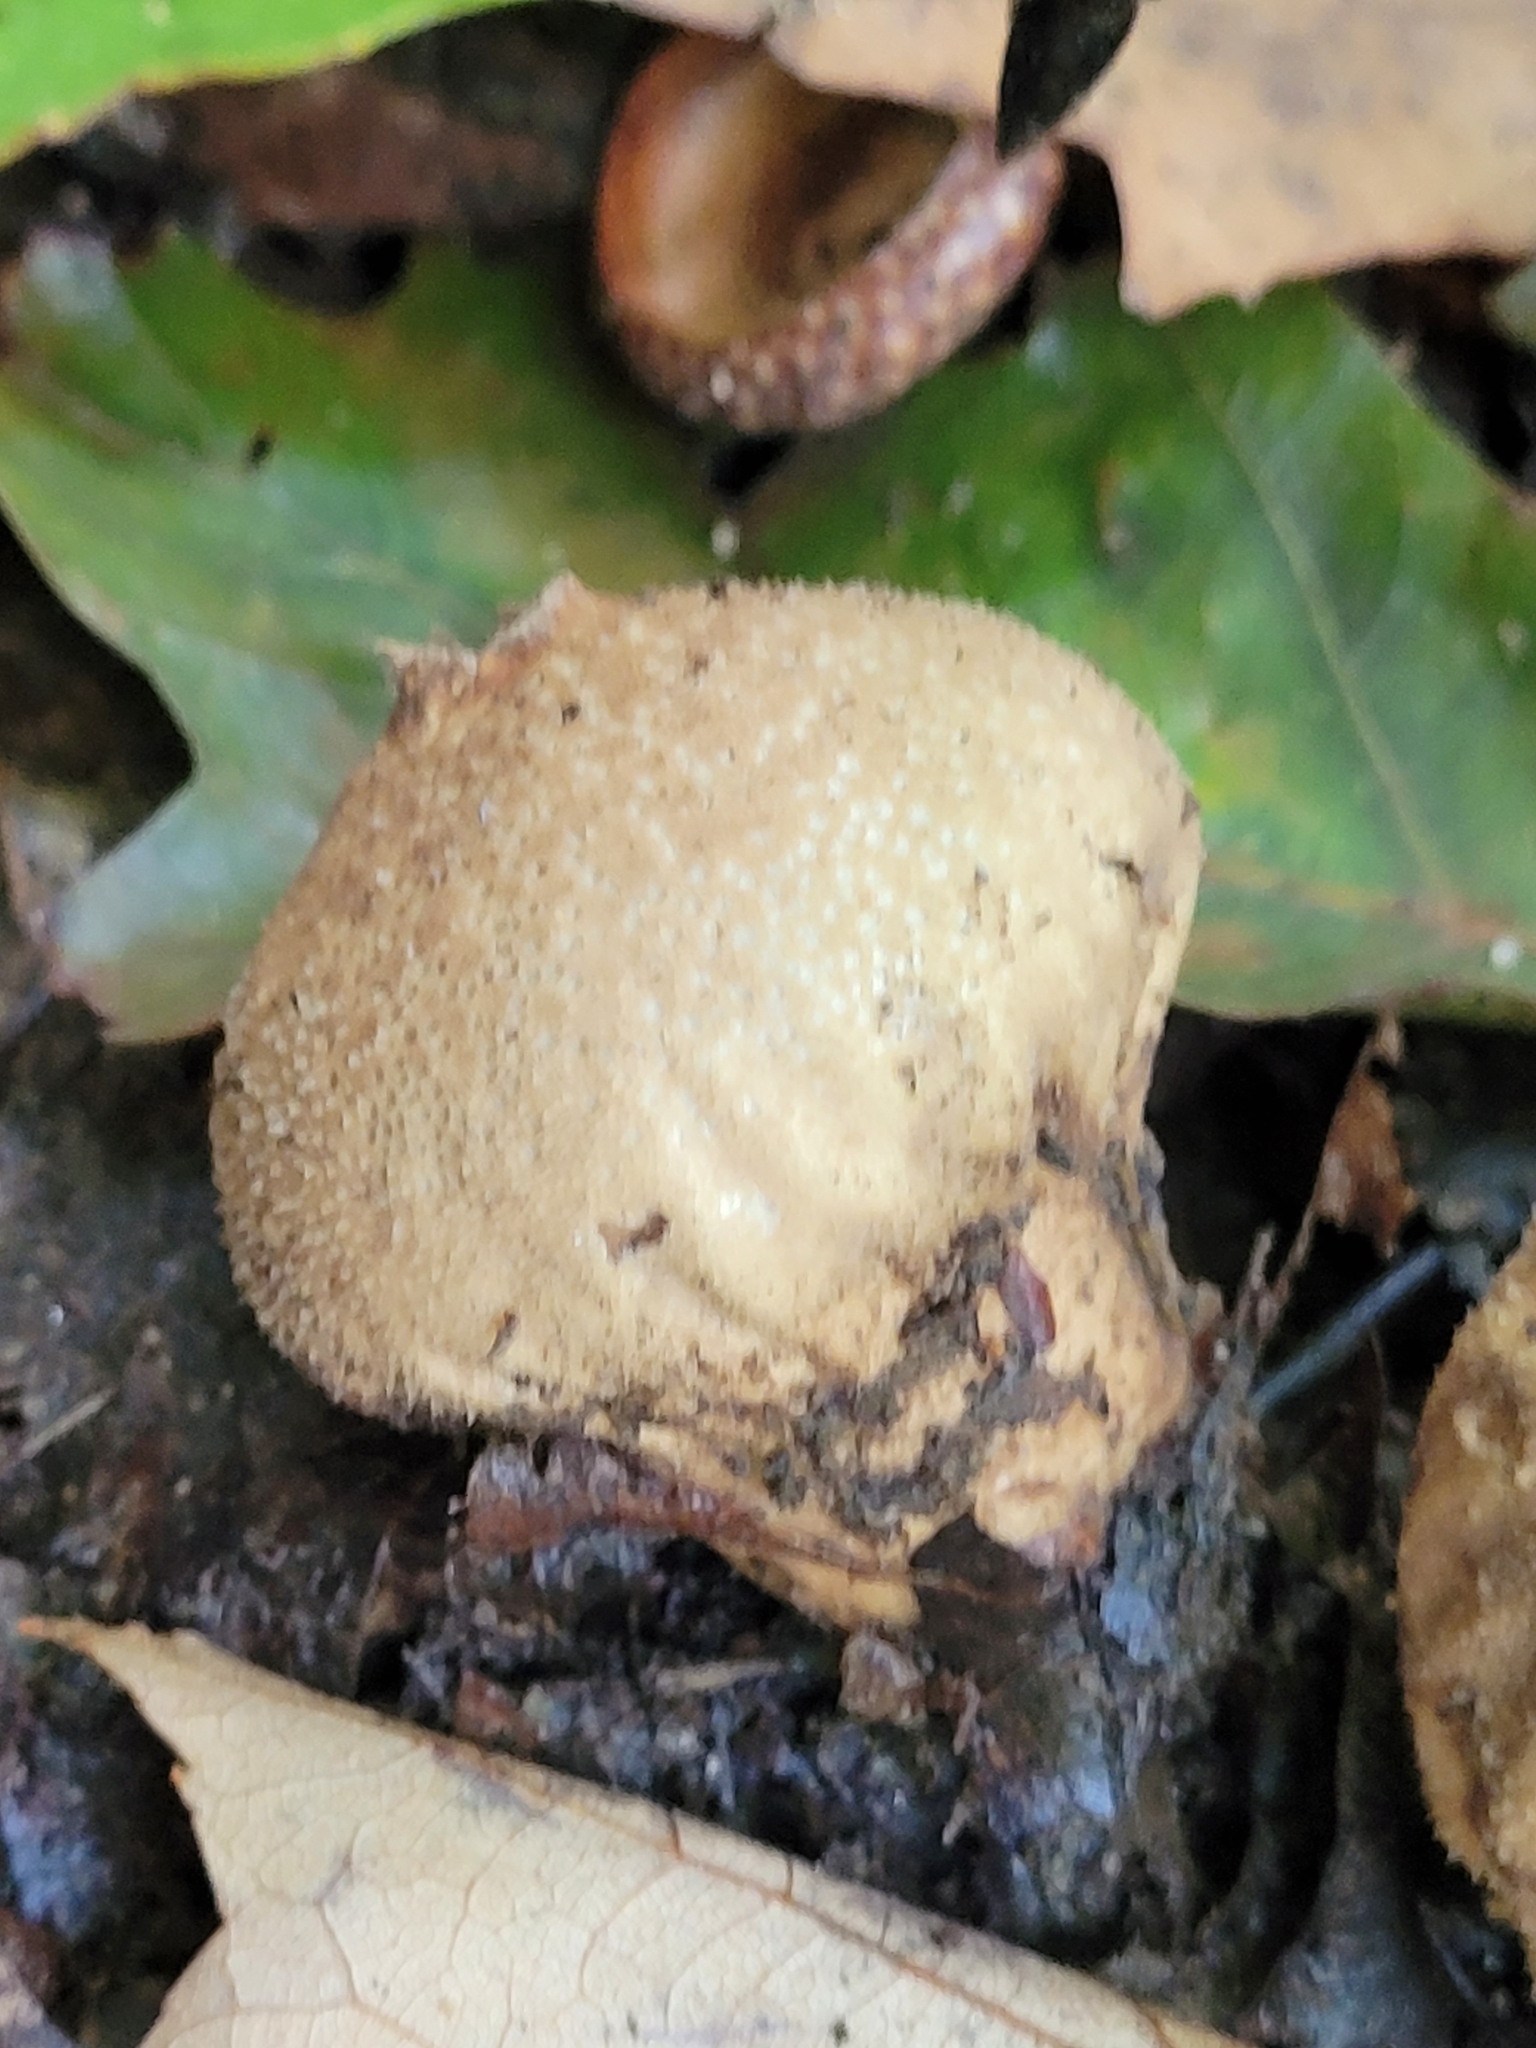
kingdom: Fungi
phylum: Basidiomycota
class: Agaricomycetes
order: Agaricales
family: Lycoperdaceae
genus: Apioperdon
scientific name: Apioperdon pyriforme
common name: Pear-shaped puffball
